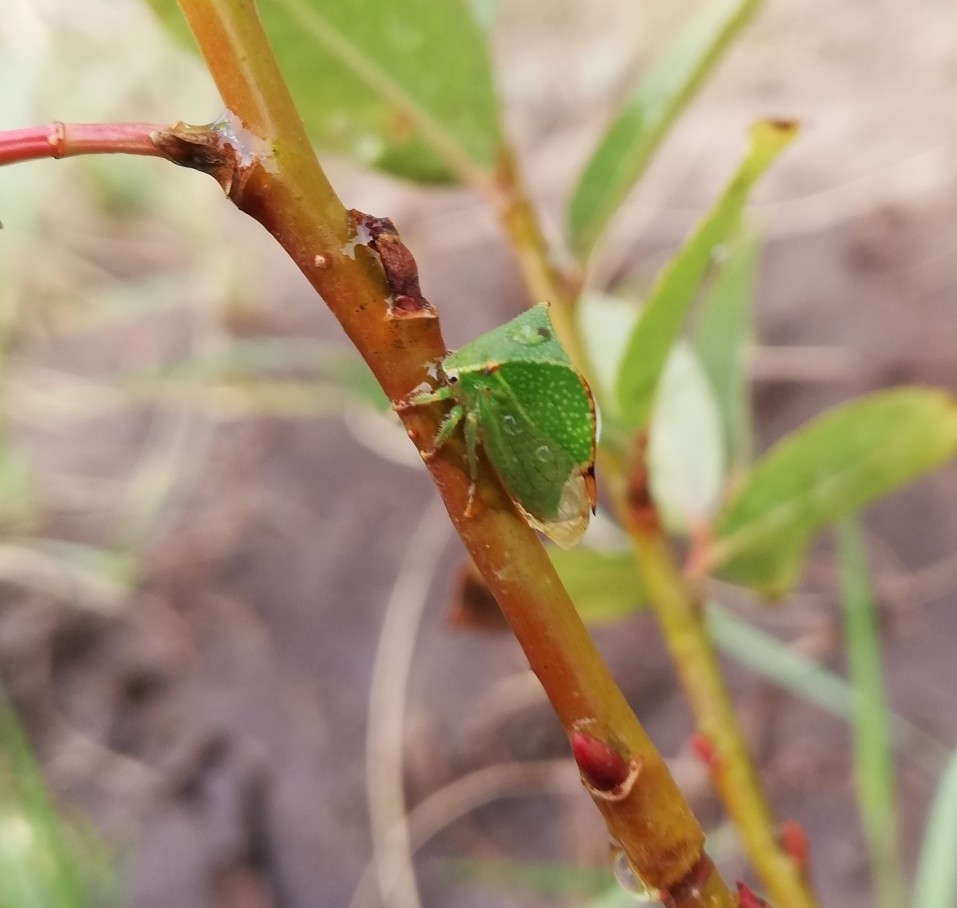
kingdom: Animalia
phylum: Arthropoda
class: Insecta
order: Hemiptera
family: Membracidae
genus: Stictocephala
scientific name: Stictocephala bisonia
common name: American buffalo treehopper
